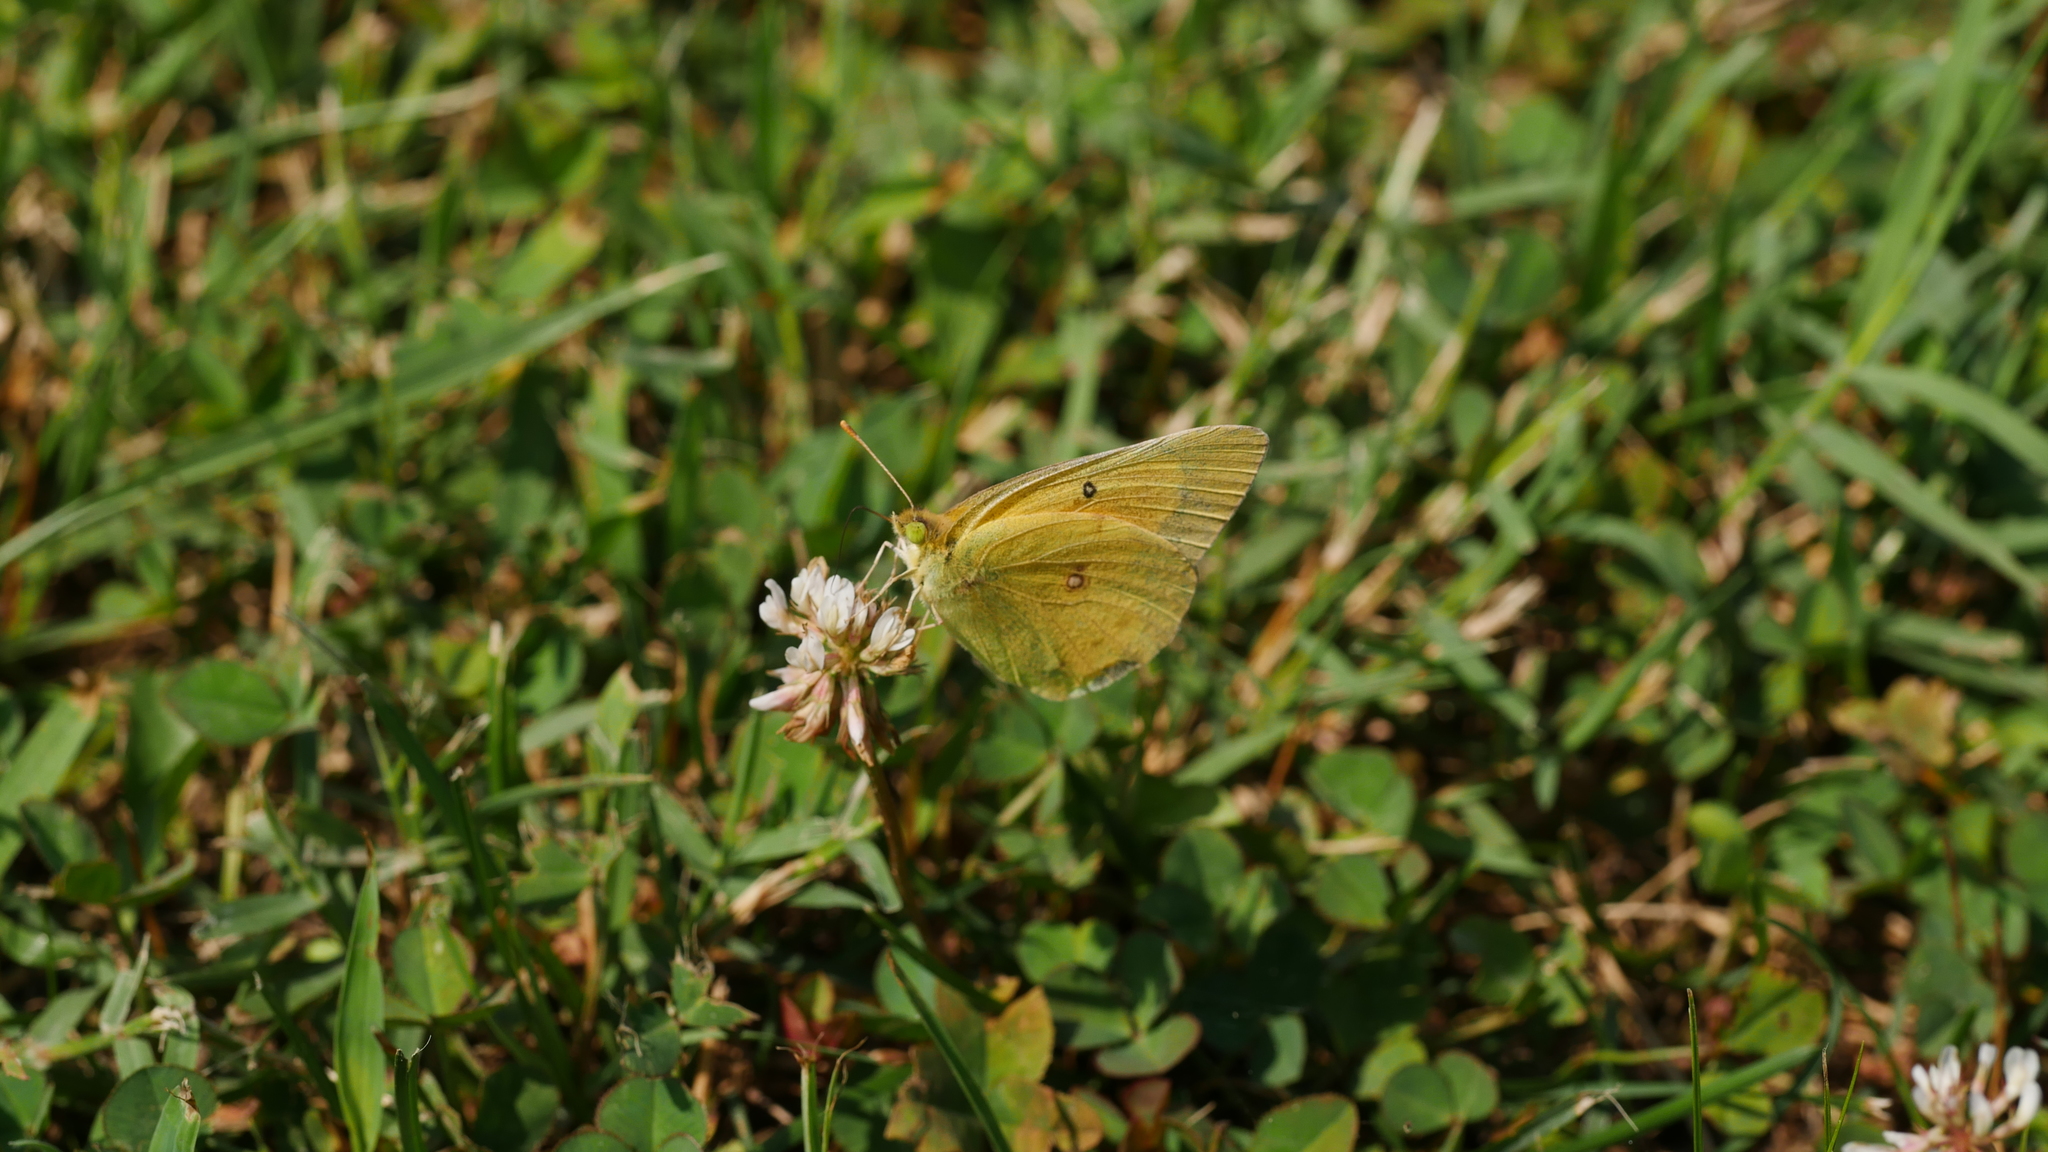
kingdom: Animalia
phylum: Arthropoda
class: Insecta
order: Lepidoptera
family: Pieridae
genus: Colias
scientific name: Colias eurytheme
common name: Alfalfa butterfly
